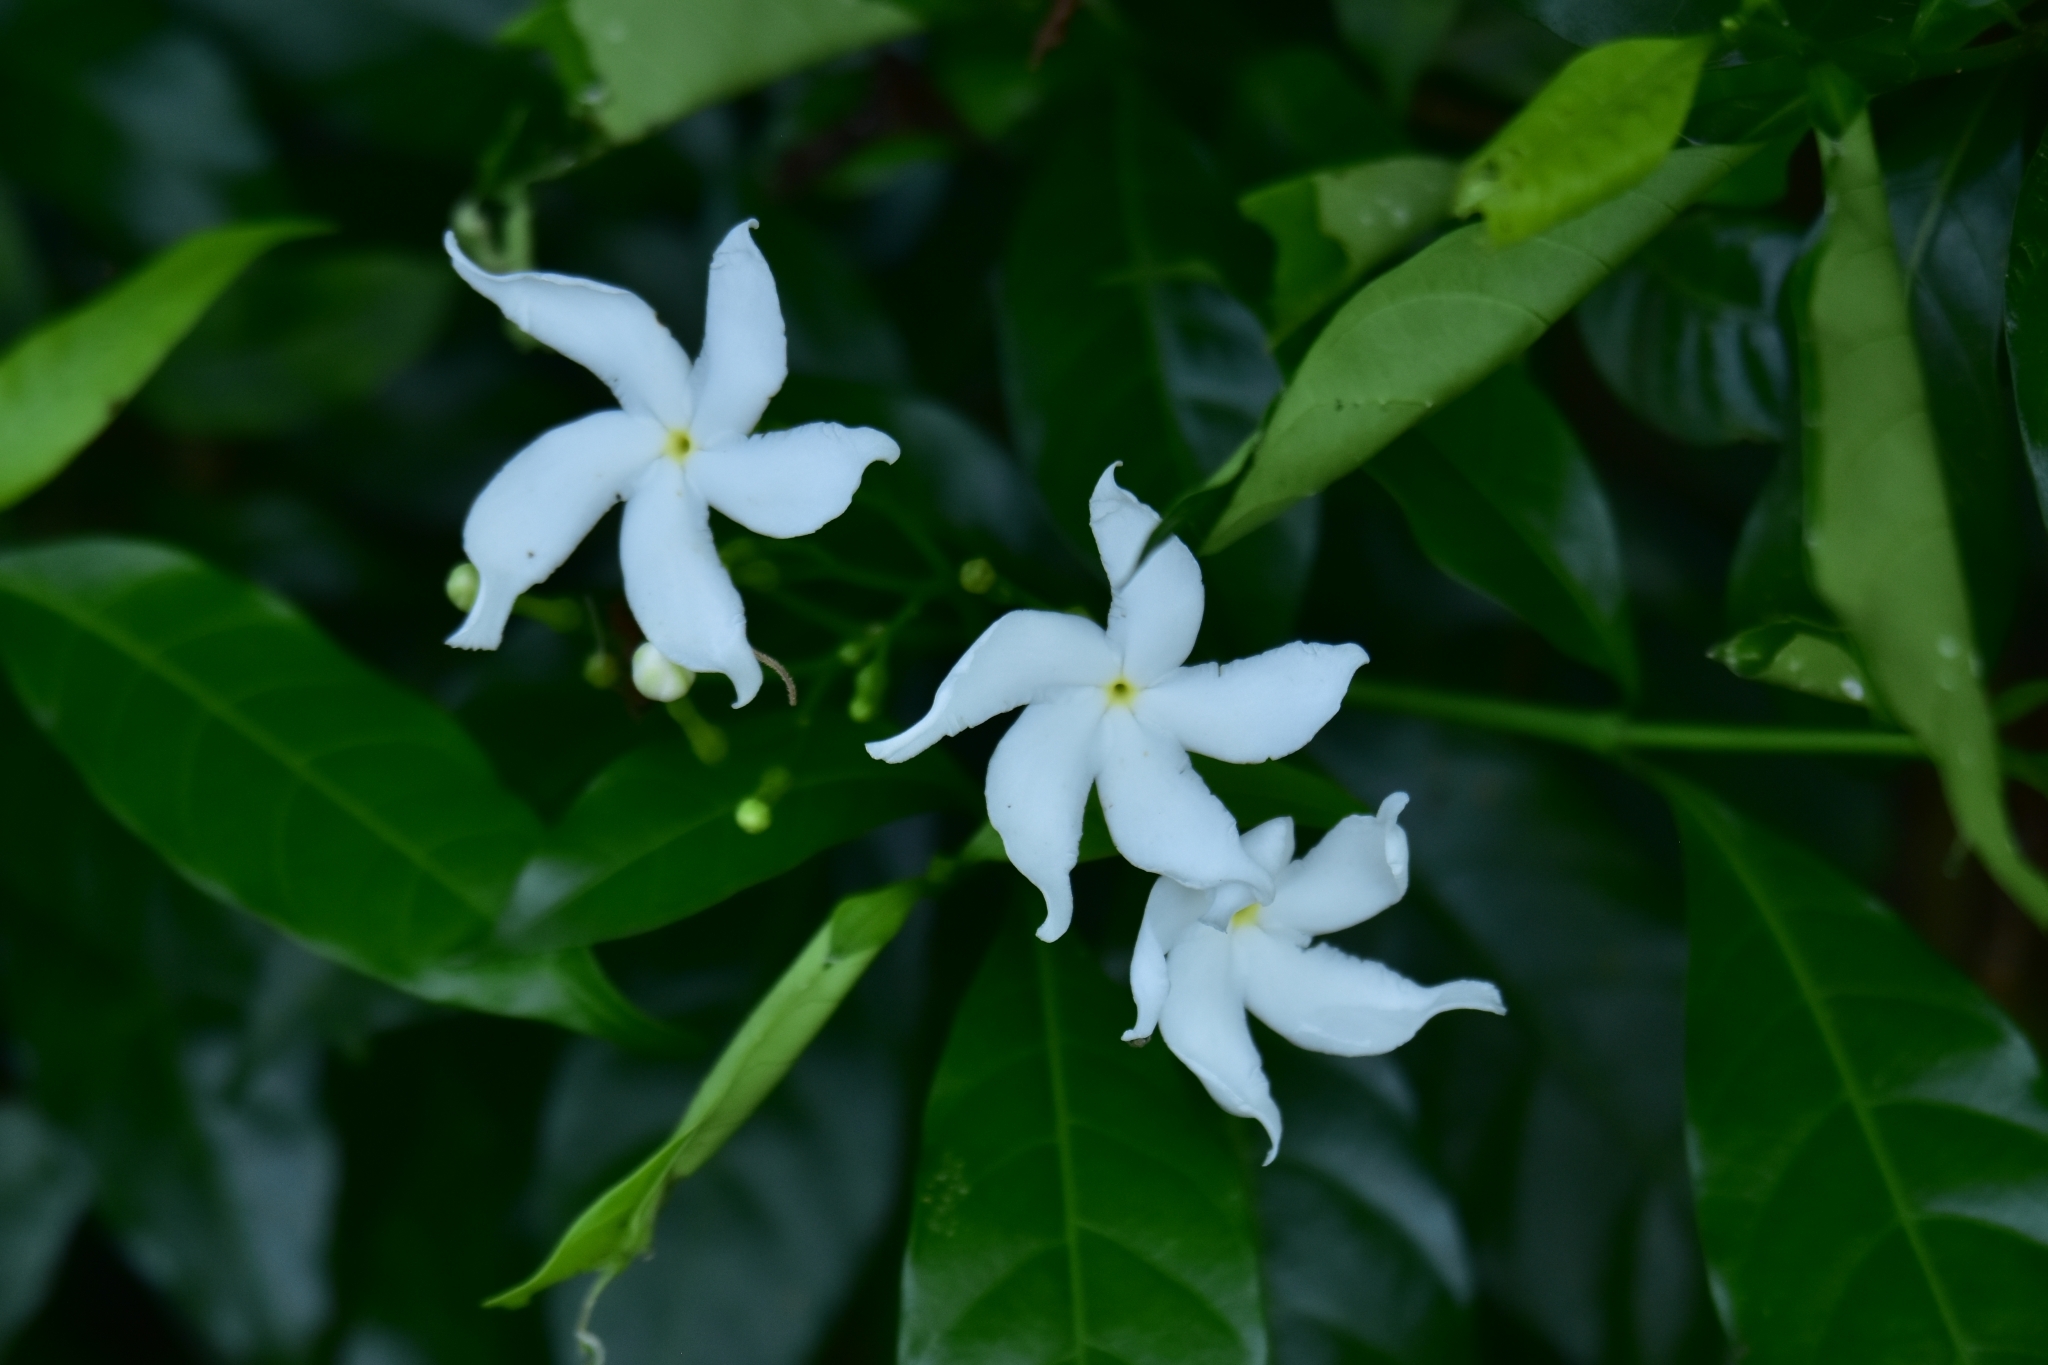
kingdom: Plantae
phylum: Tracheophyta
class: Magnoliopsida
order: Gentianales
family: Apocynaceae
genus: Tabernaemontana
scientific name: Tabernaemontana divaricata
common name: Pinwheelflower
